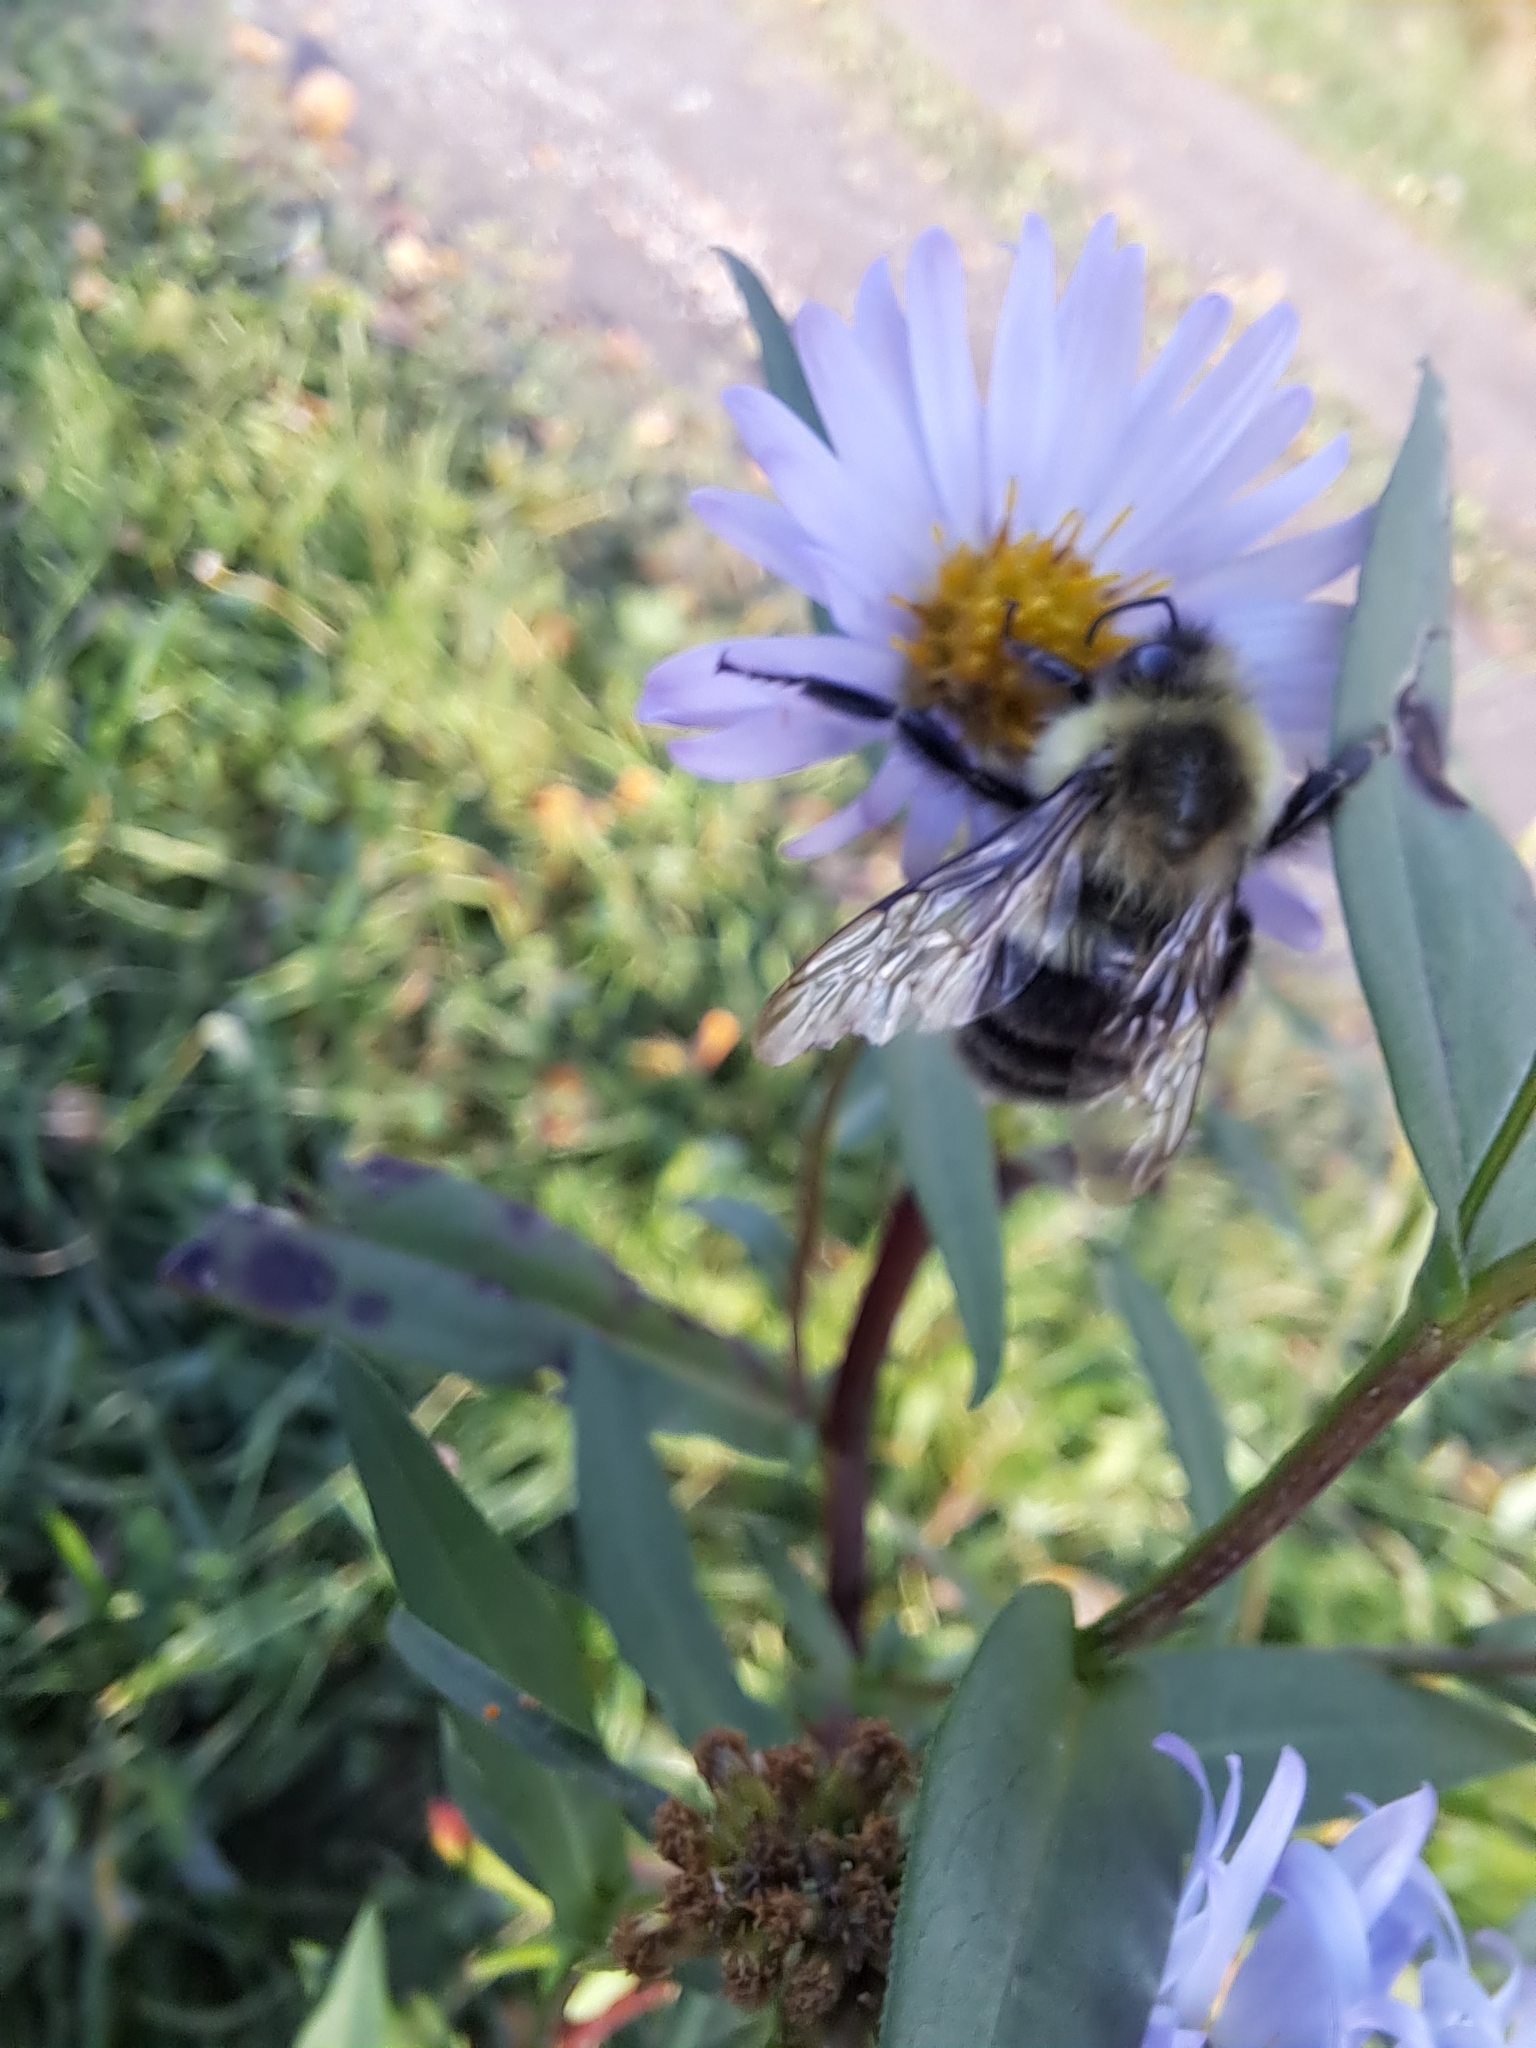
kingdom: Animalia
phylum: Arthropoda
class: Insecta
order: Hymenoptera
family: Apidae
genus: Bombus
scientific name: Bombus impatiens
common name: Common eastern bumble bee
